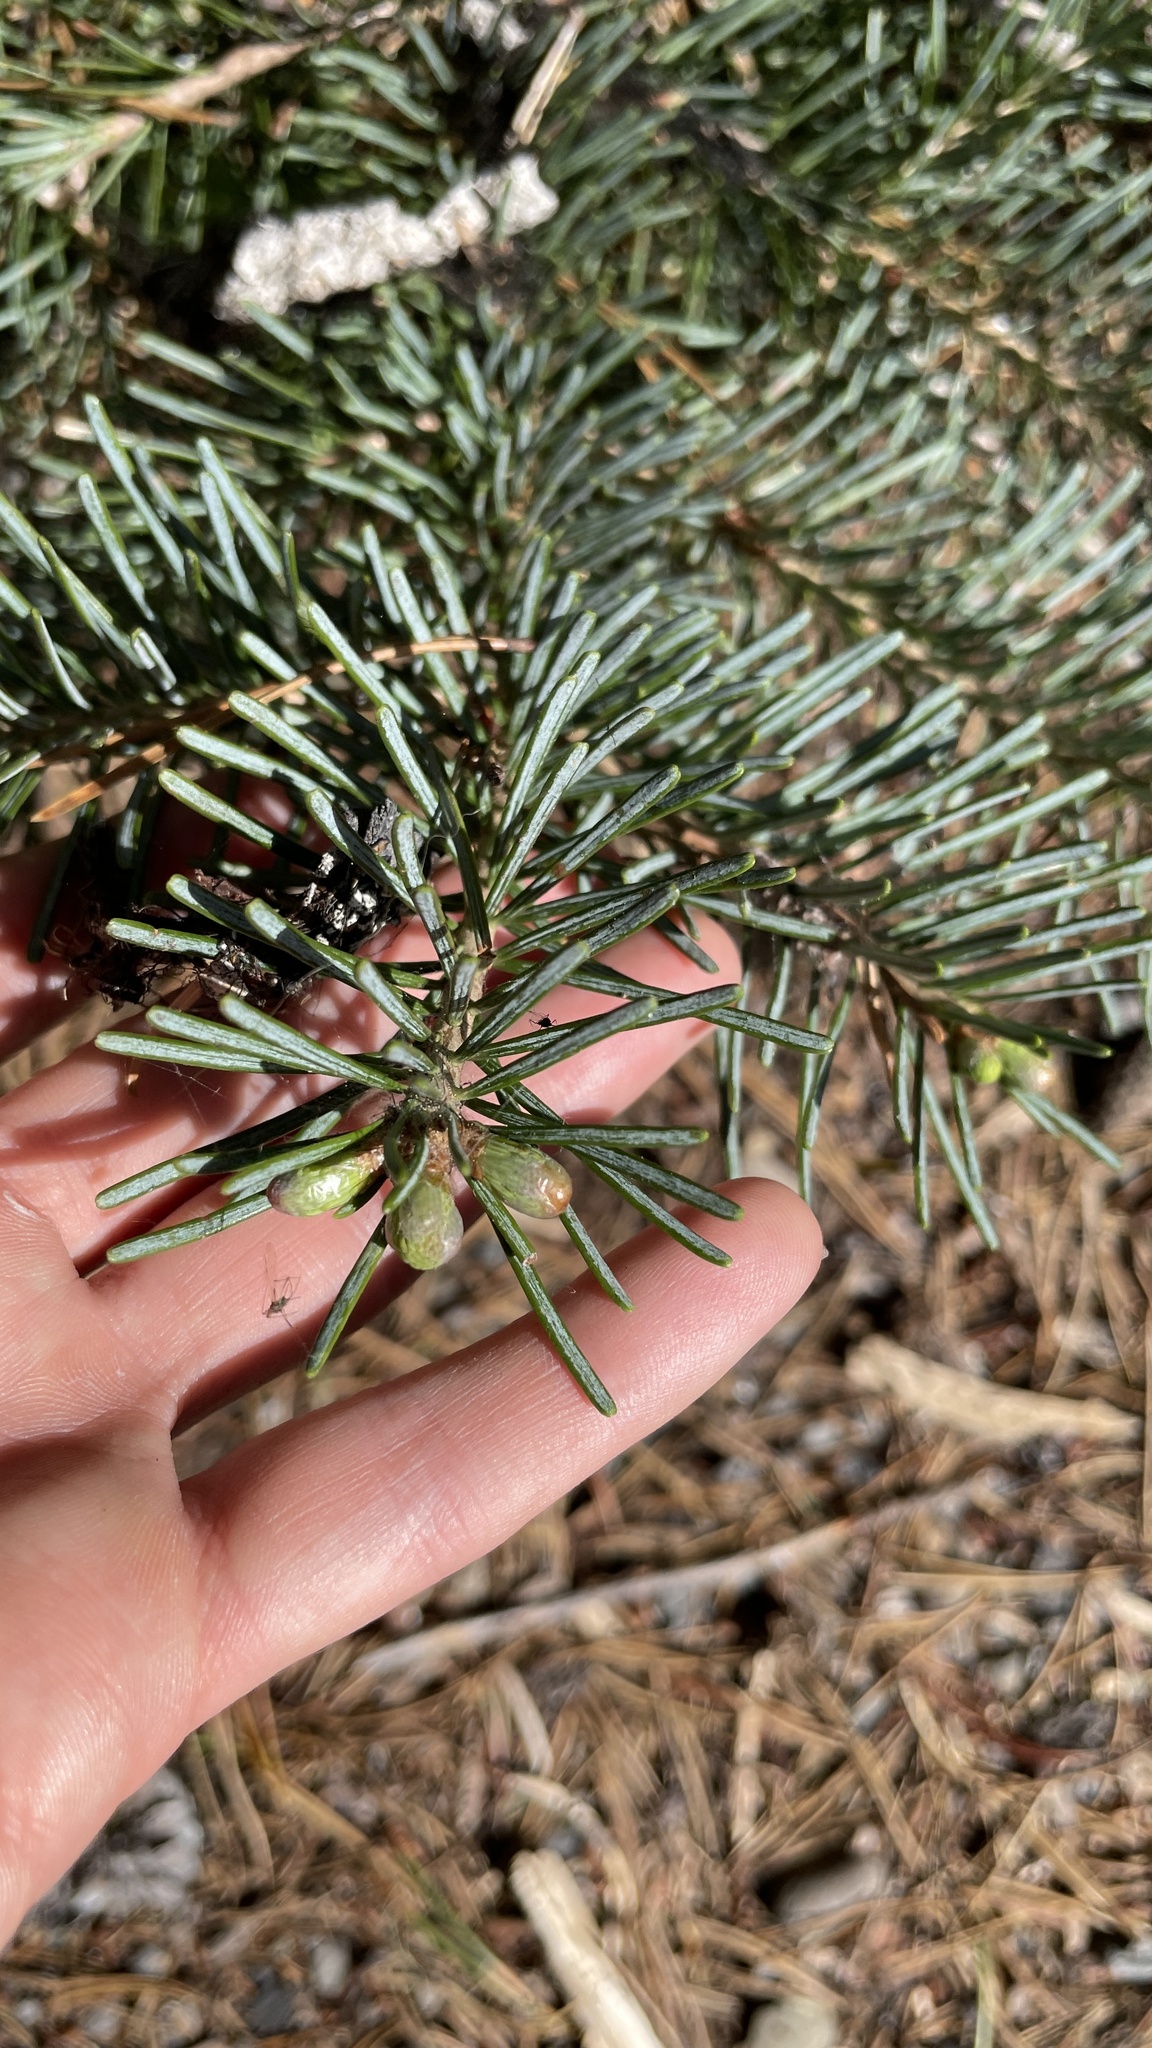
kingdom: Plantae
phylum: Tracheophyta
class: Pinopsida
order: Pinales
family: Pinaceae
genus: Abies
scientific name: Abies lasiocarpa
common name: Subalpine fir
